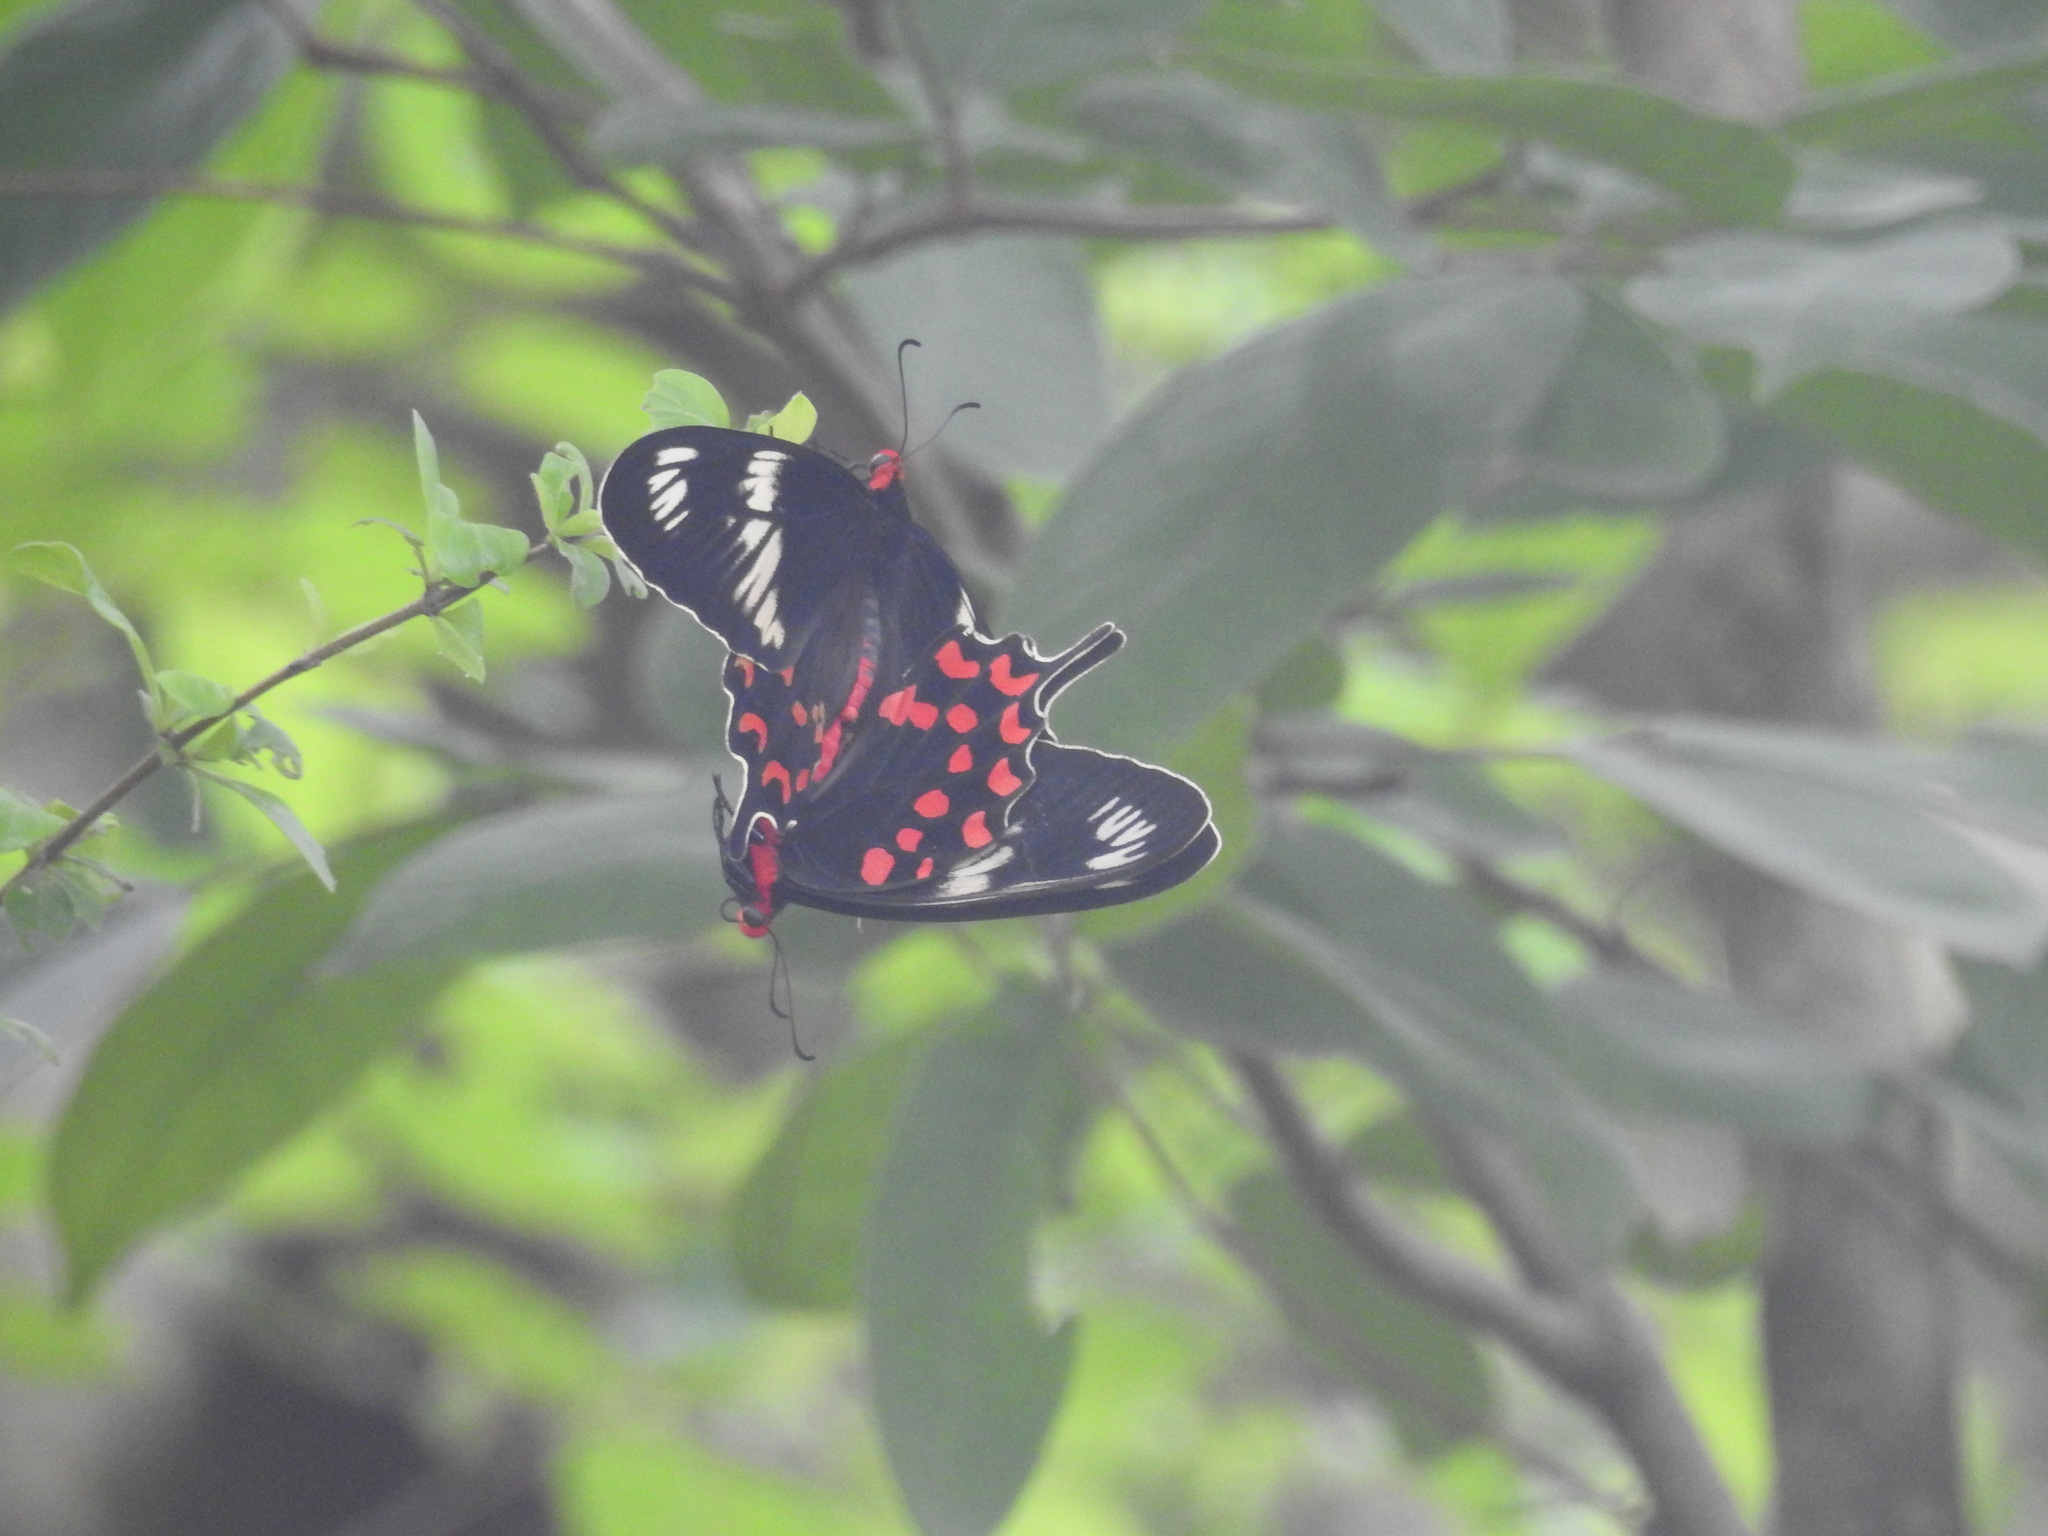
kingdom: Animalia
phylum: Arthropoda
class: Insecta
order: Lepidoptera
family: Papilionidae
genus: Pachliopta
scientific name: Pachliopta hector
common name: Crimson rose
